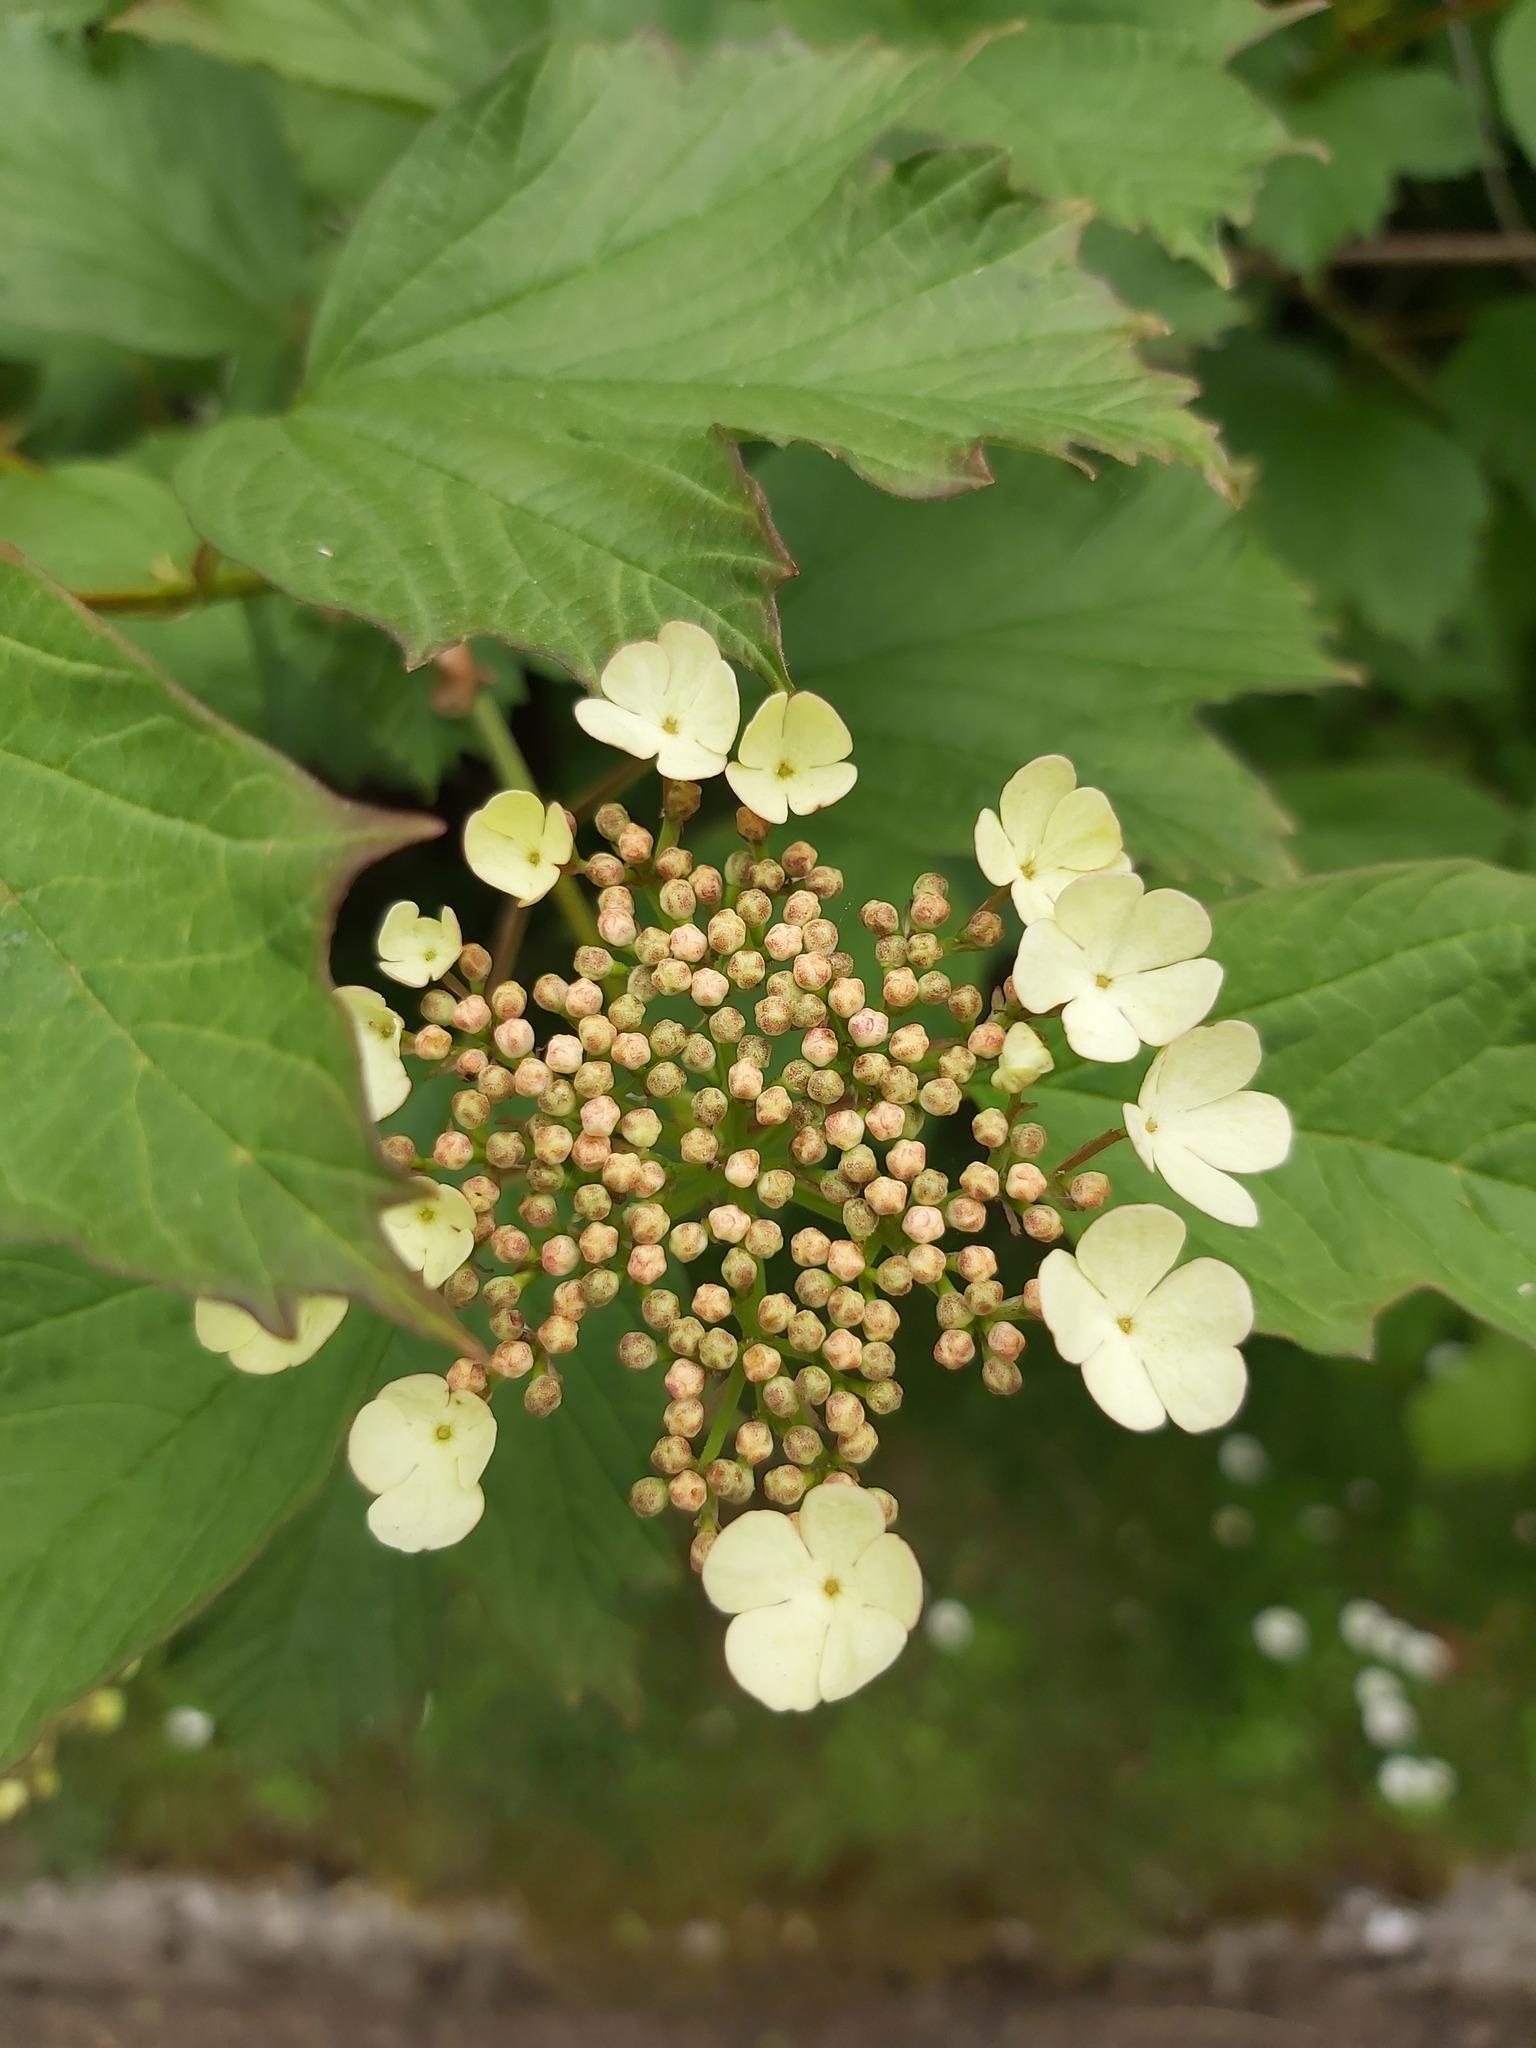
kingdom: Plantae
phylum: Tracheophyta
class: Magnoliopsida
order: Dipsacales
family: Viburnaceae
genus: Viburnum
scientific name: Viburnum opulus
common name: Guelder-rose
